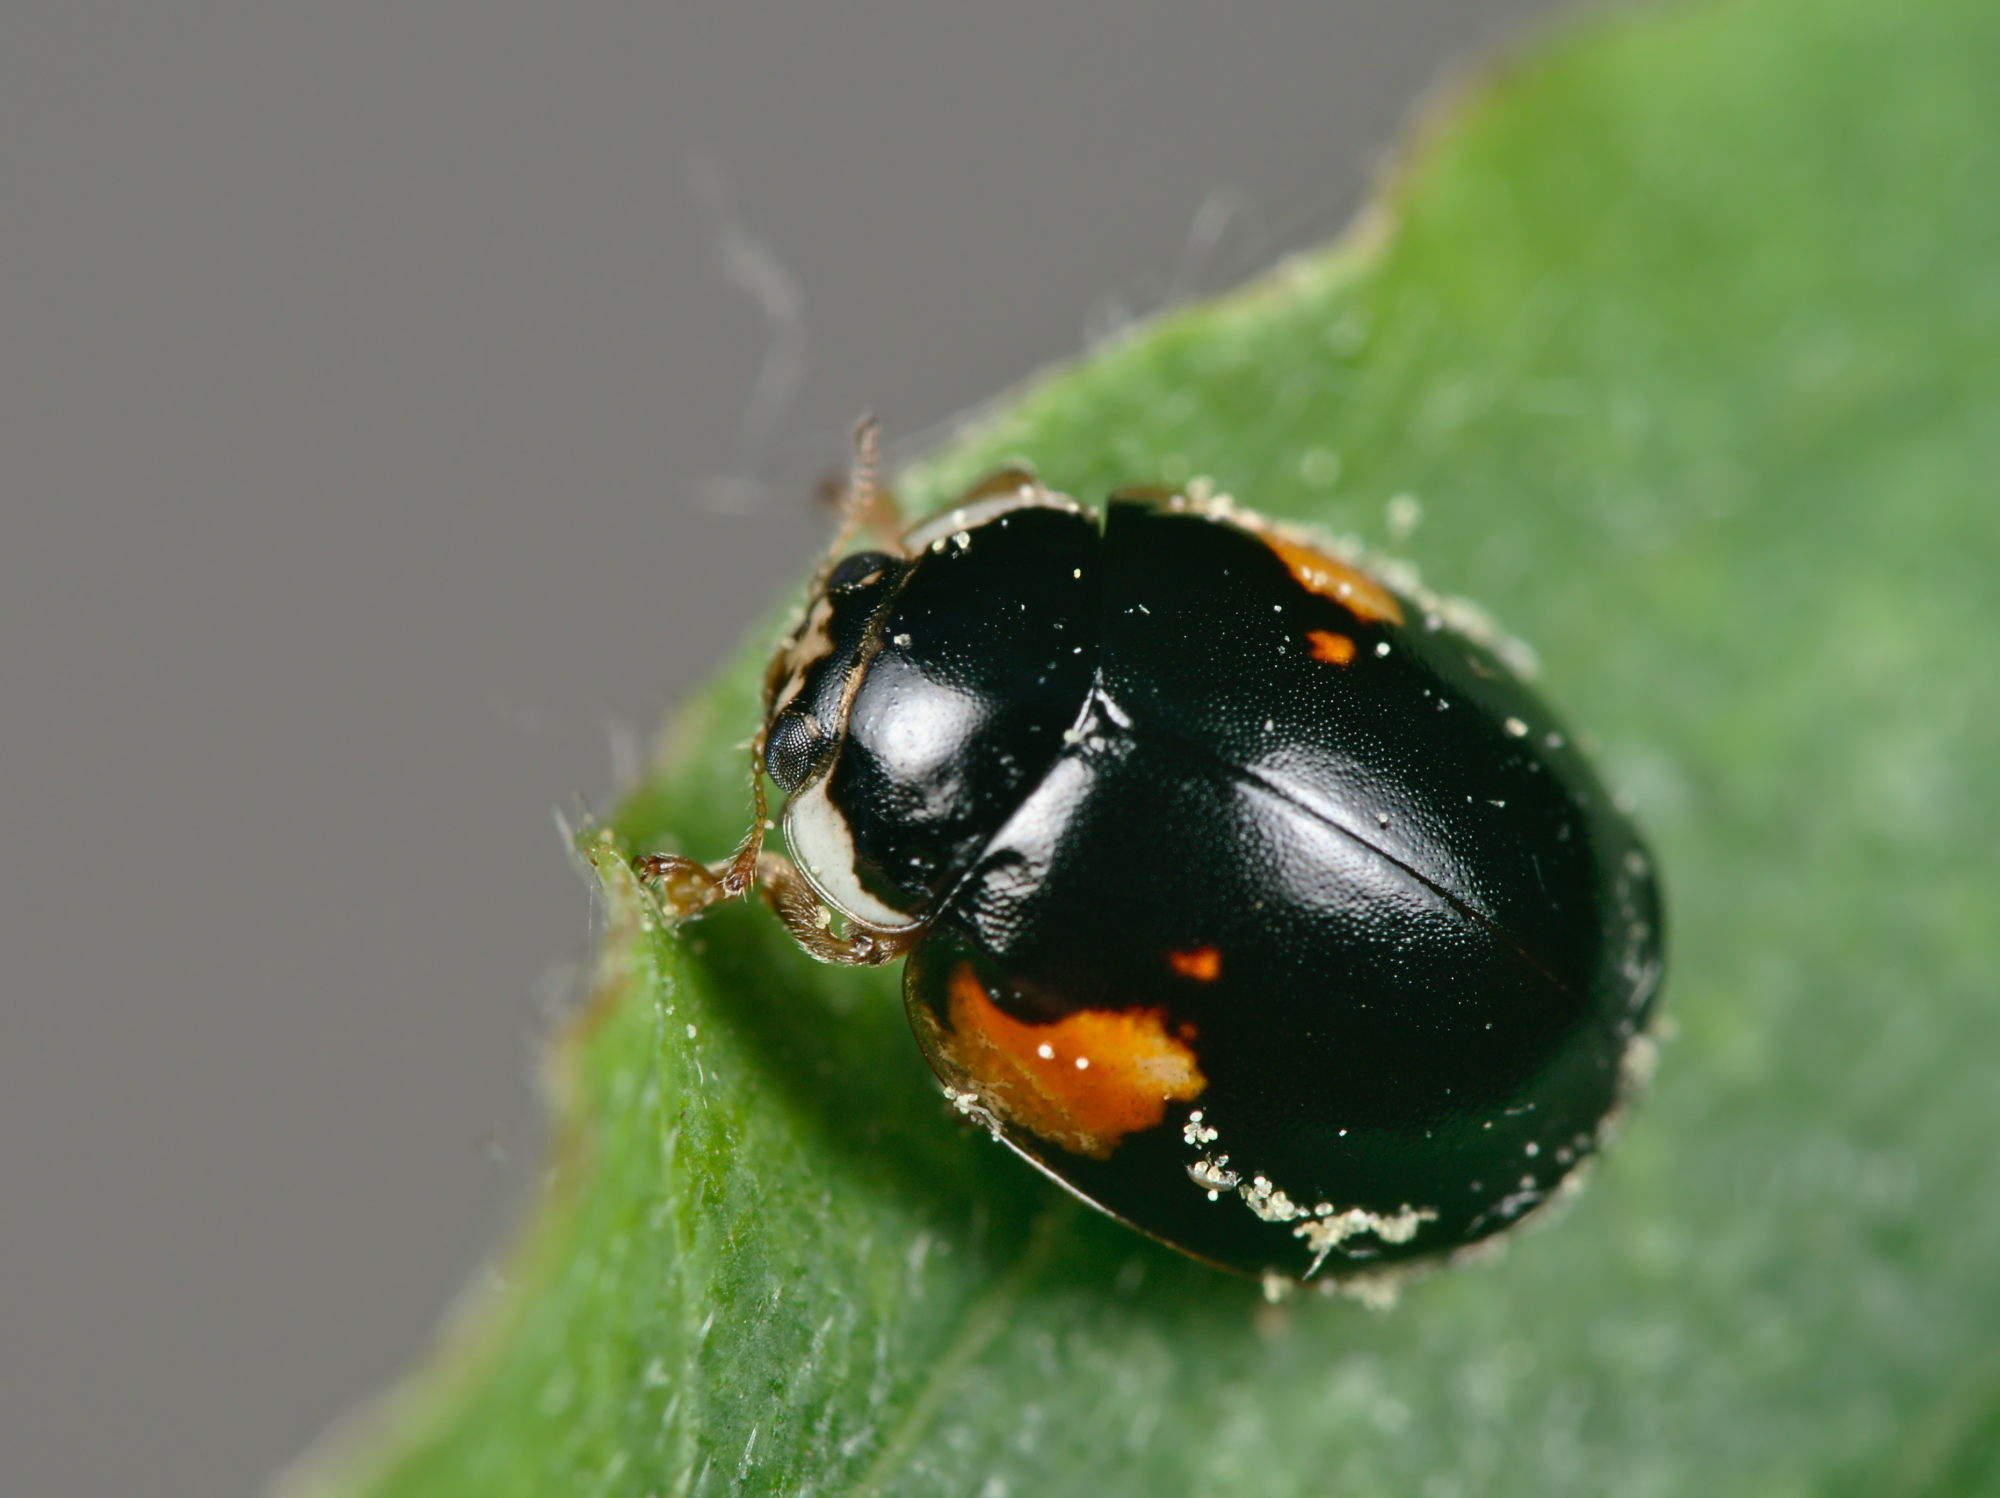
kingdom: Animalia
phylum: Arthropoda
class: Insecta
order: Coleoptera
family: Coccinellidae
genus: Adalia
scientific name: Adalia decempunctata
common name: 10-spot ladybird
